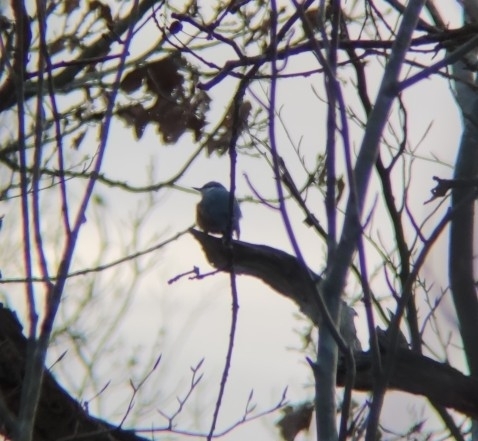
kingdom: Animalia
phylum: Chordata
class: Aves
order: Passeriformes
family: Sittidae
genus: Sitta
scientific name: Sitta europaea
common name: Eurasian nuthatch
